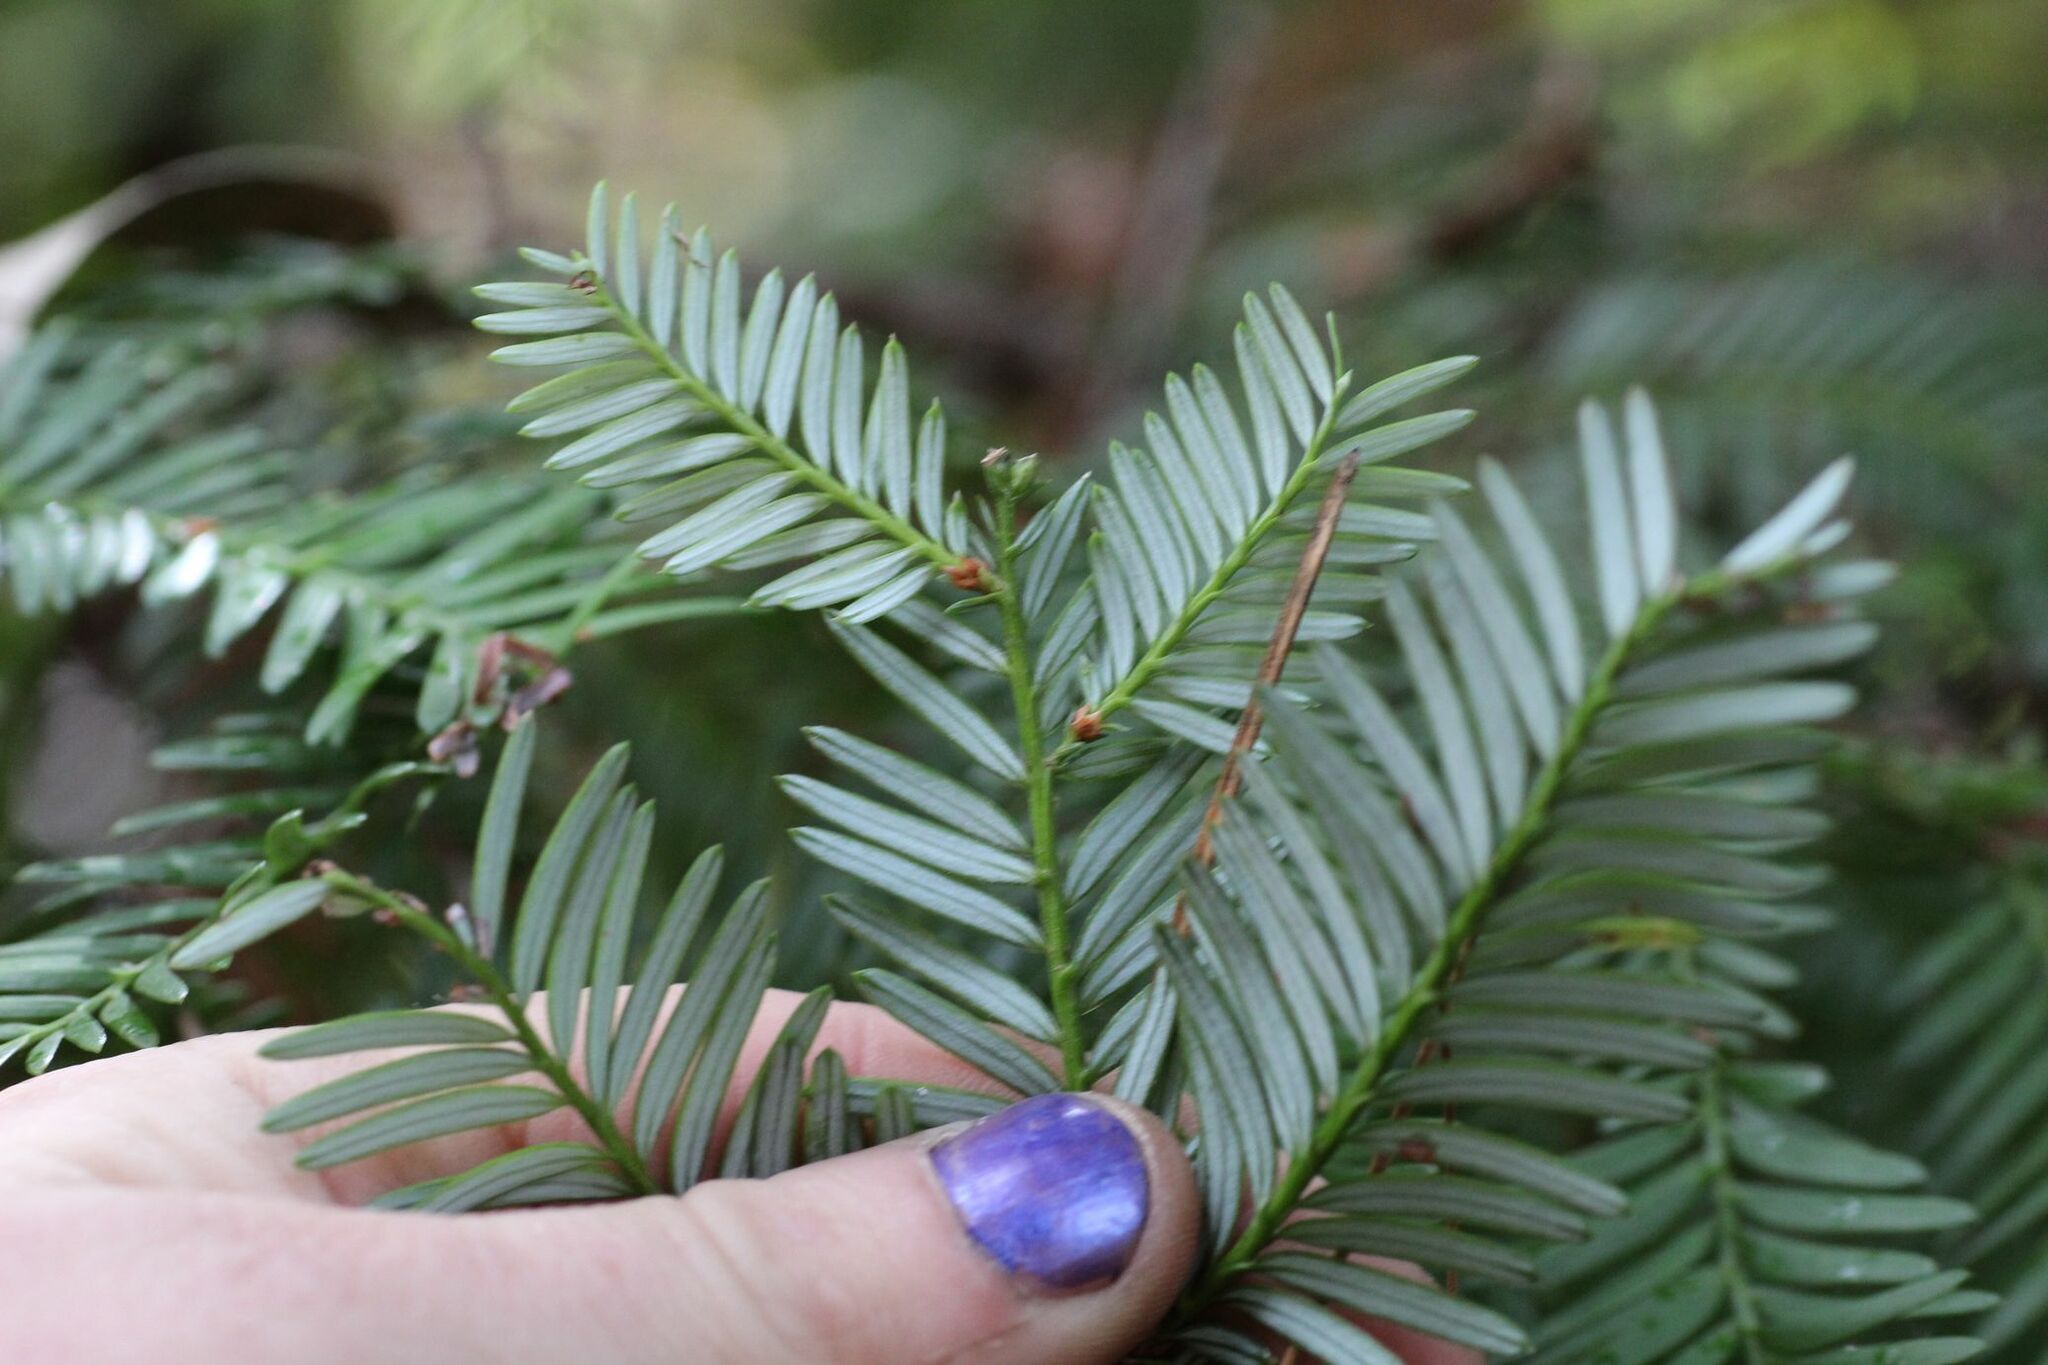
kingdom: Plantae
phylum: Tracheophyta
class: Pinopsida
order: Pinales
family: Cupressaceae
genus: Sequoia
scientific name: Sequoia sempervirens
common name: Coast redwood
